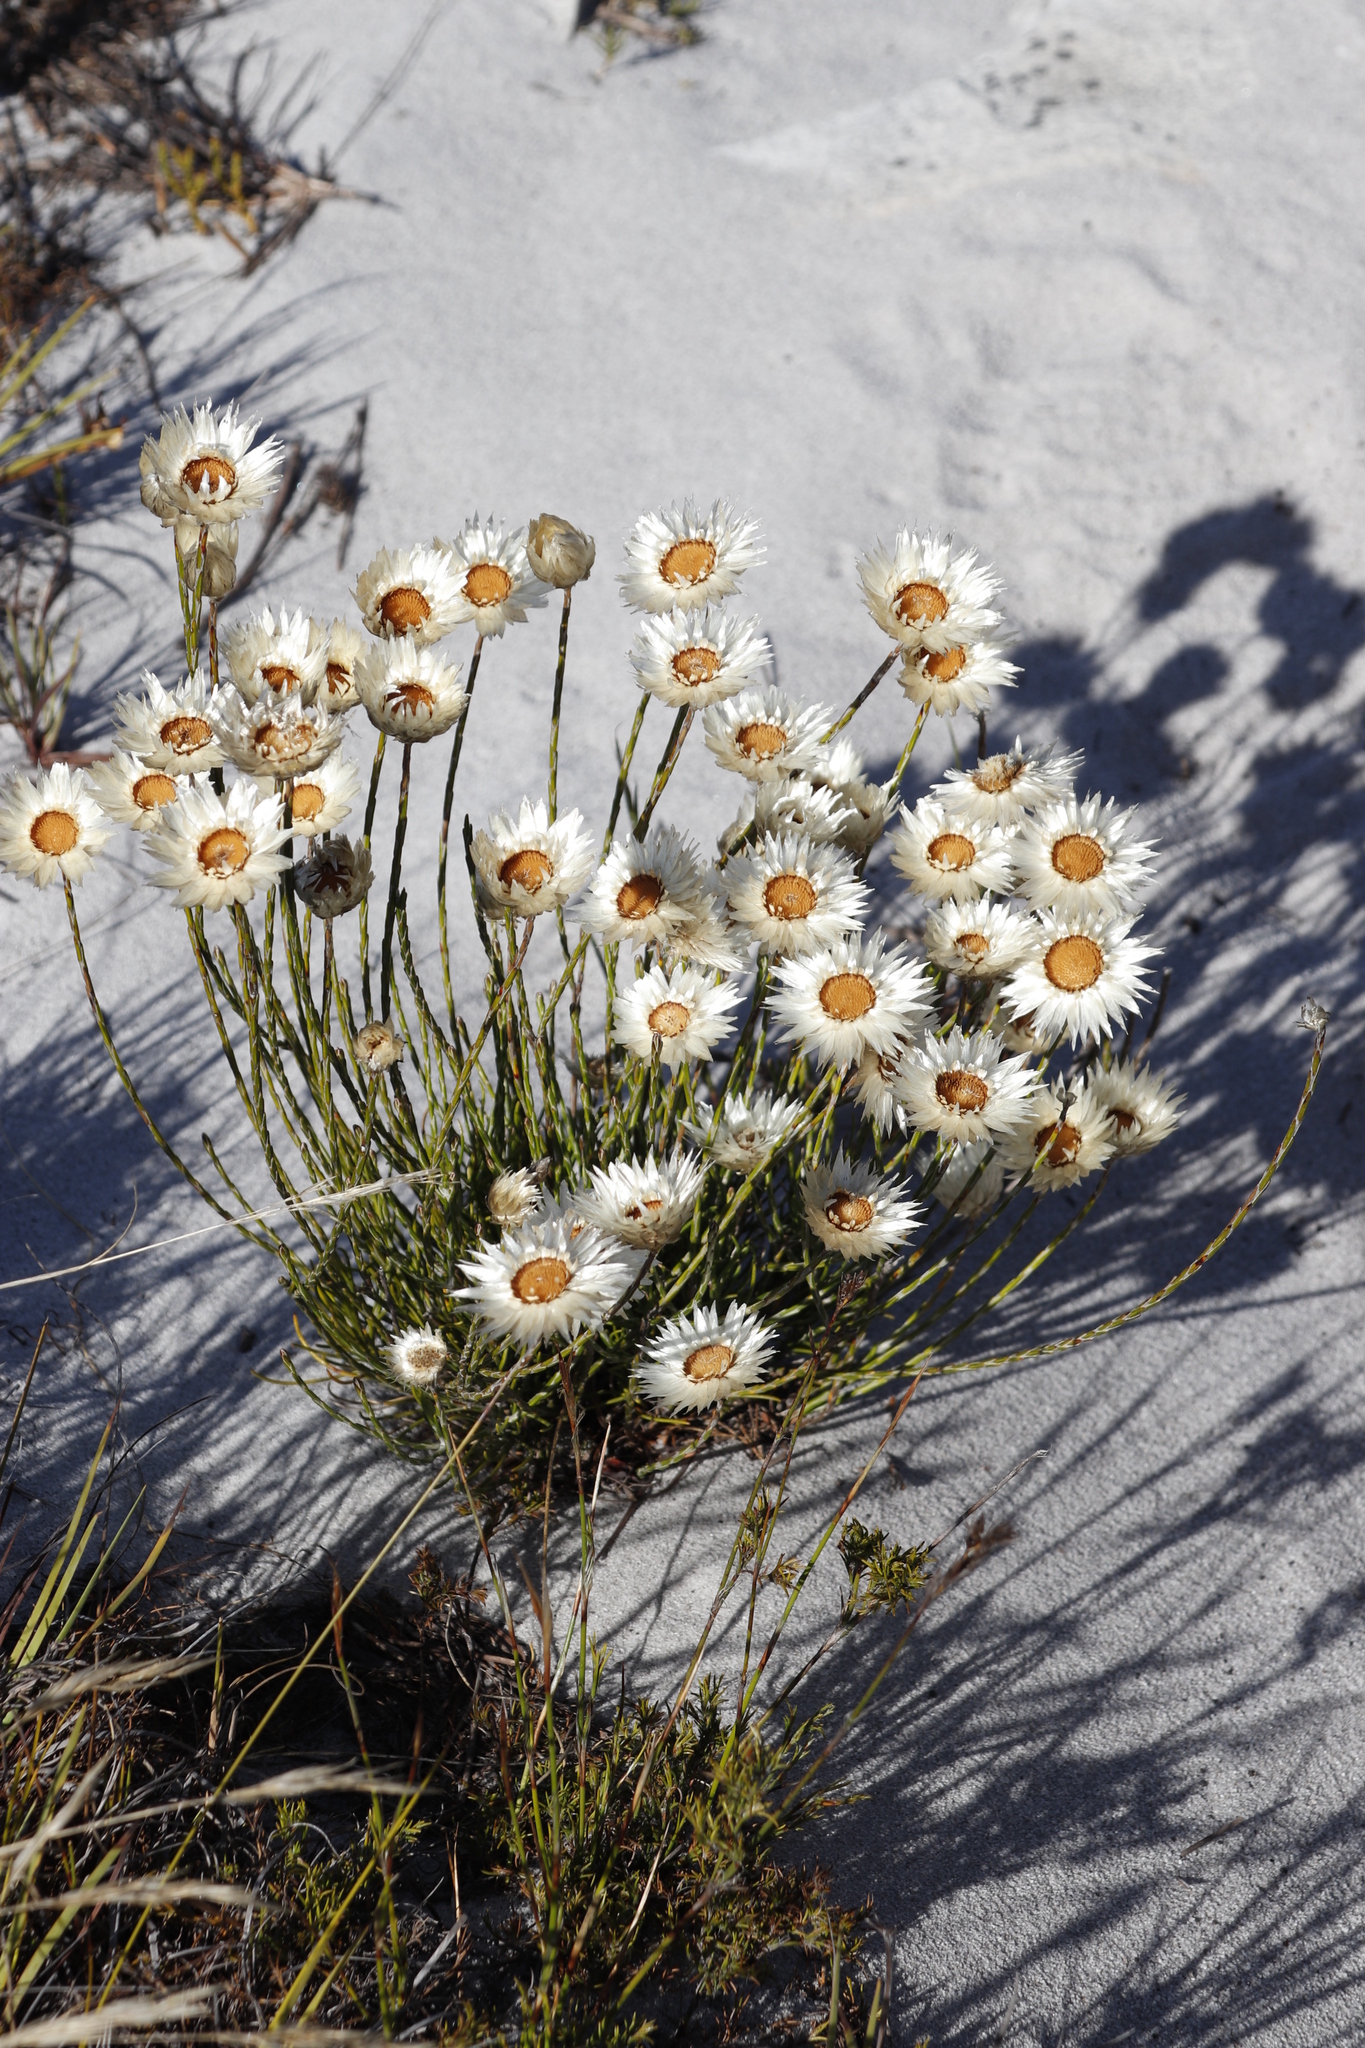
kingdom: Plantae
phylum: Tracheophyta
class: Magnoliopsida
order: Asterales
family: Asteraceae
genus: Edmondia
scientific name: Edmondia sesamoides
